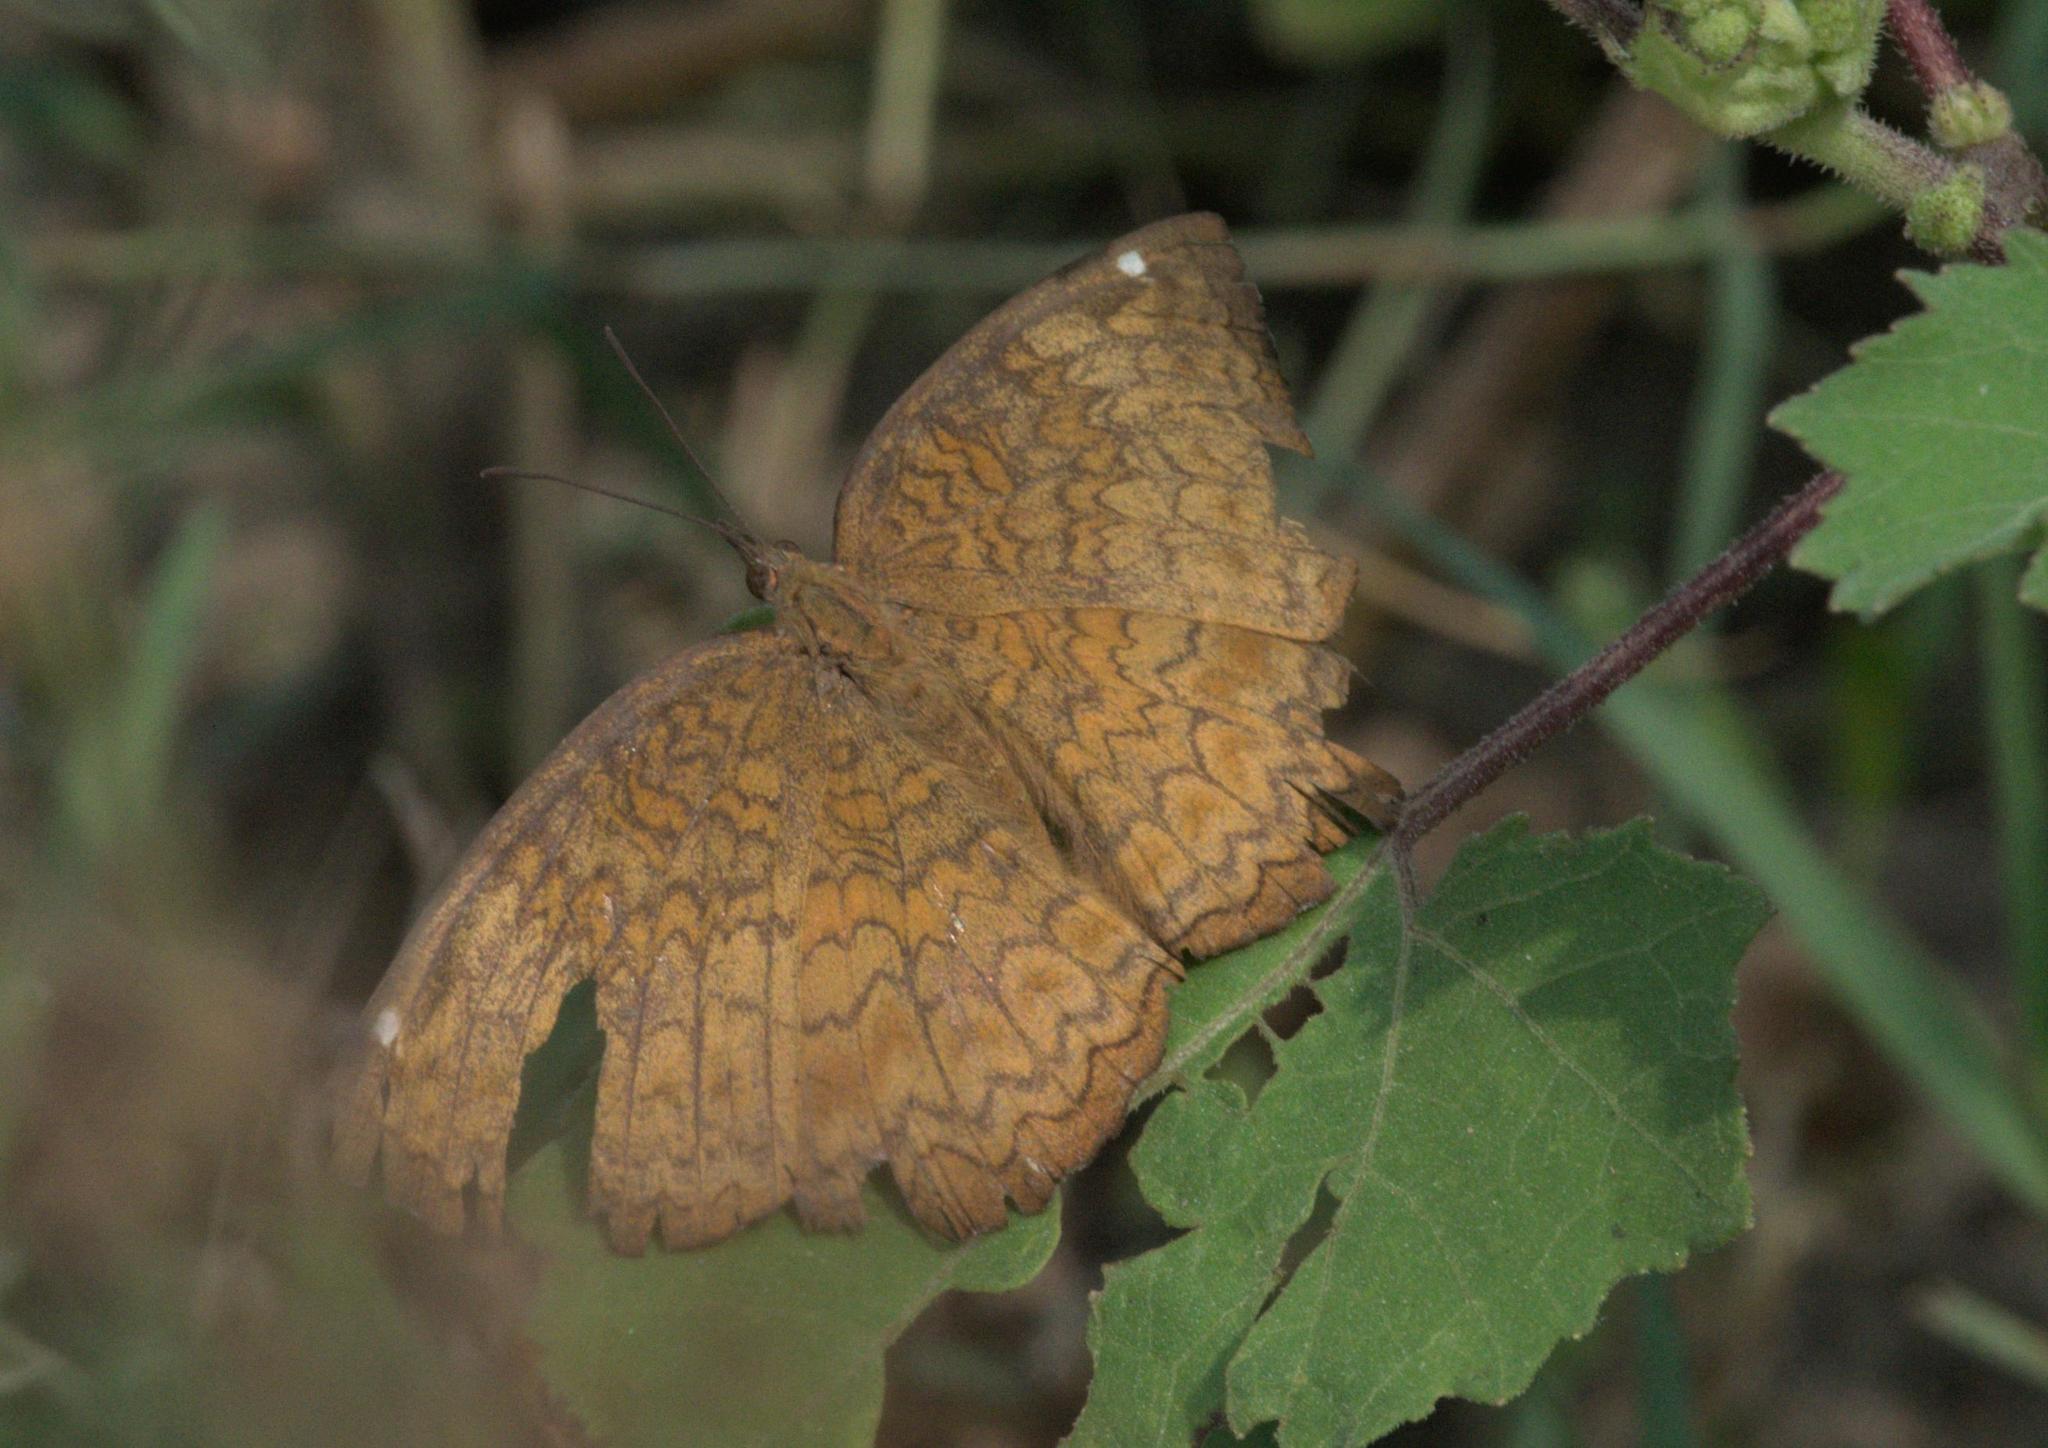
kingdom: Animalia
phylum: Arthropoda
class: Insecta
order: Lepidoptera
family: Nymphalidae
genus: Ariadne
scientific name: Ariadne merione
